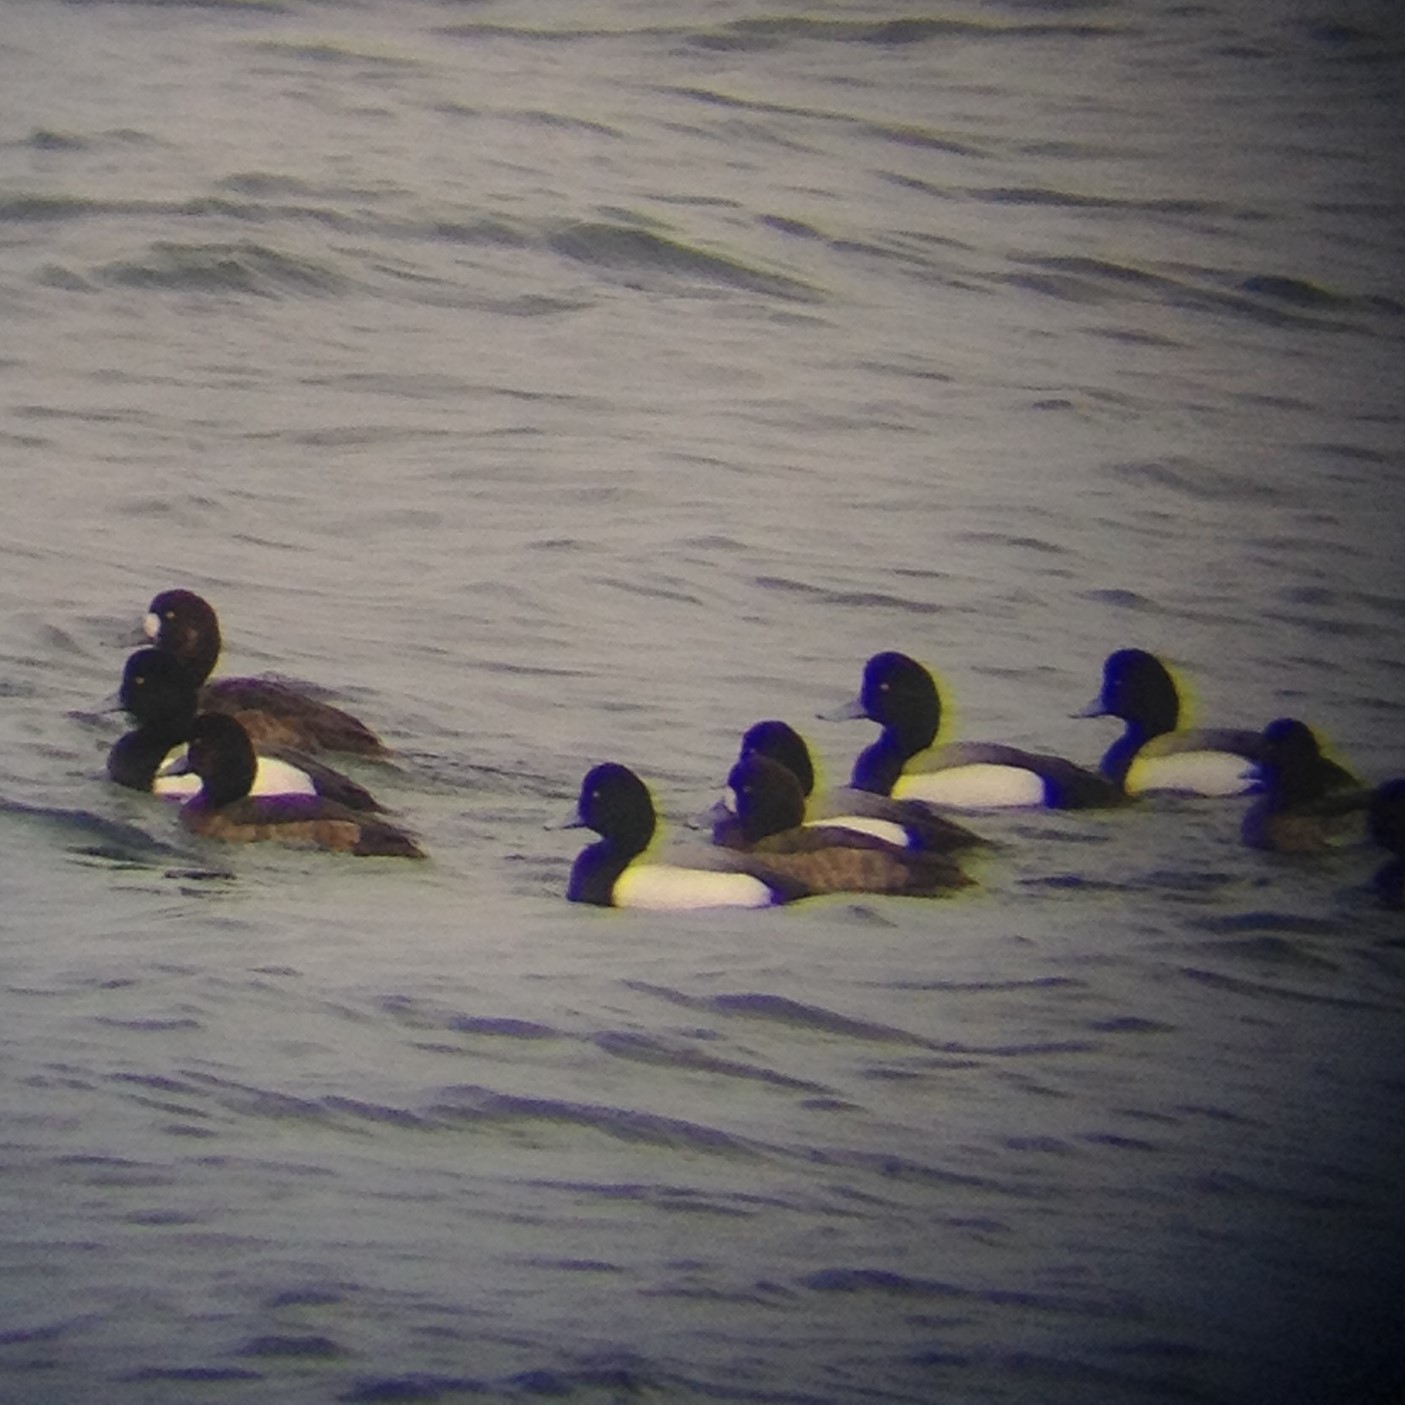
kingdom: Animalia
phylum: Chordata
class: Aves
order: Anseriformes
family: Anatidae
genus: Aythya
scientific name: Aythya marila
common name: Greater scaup
